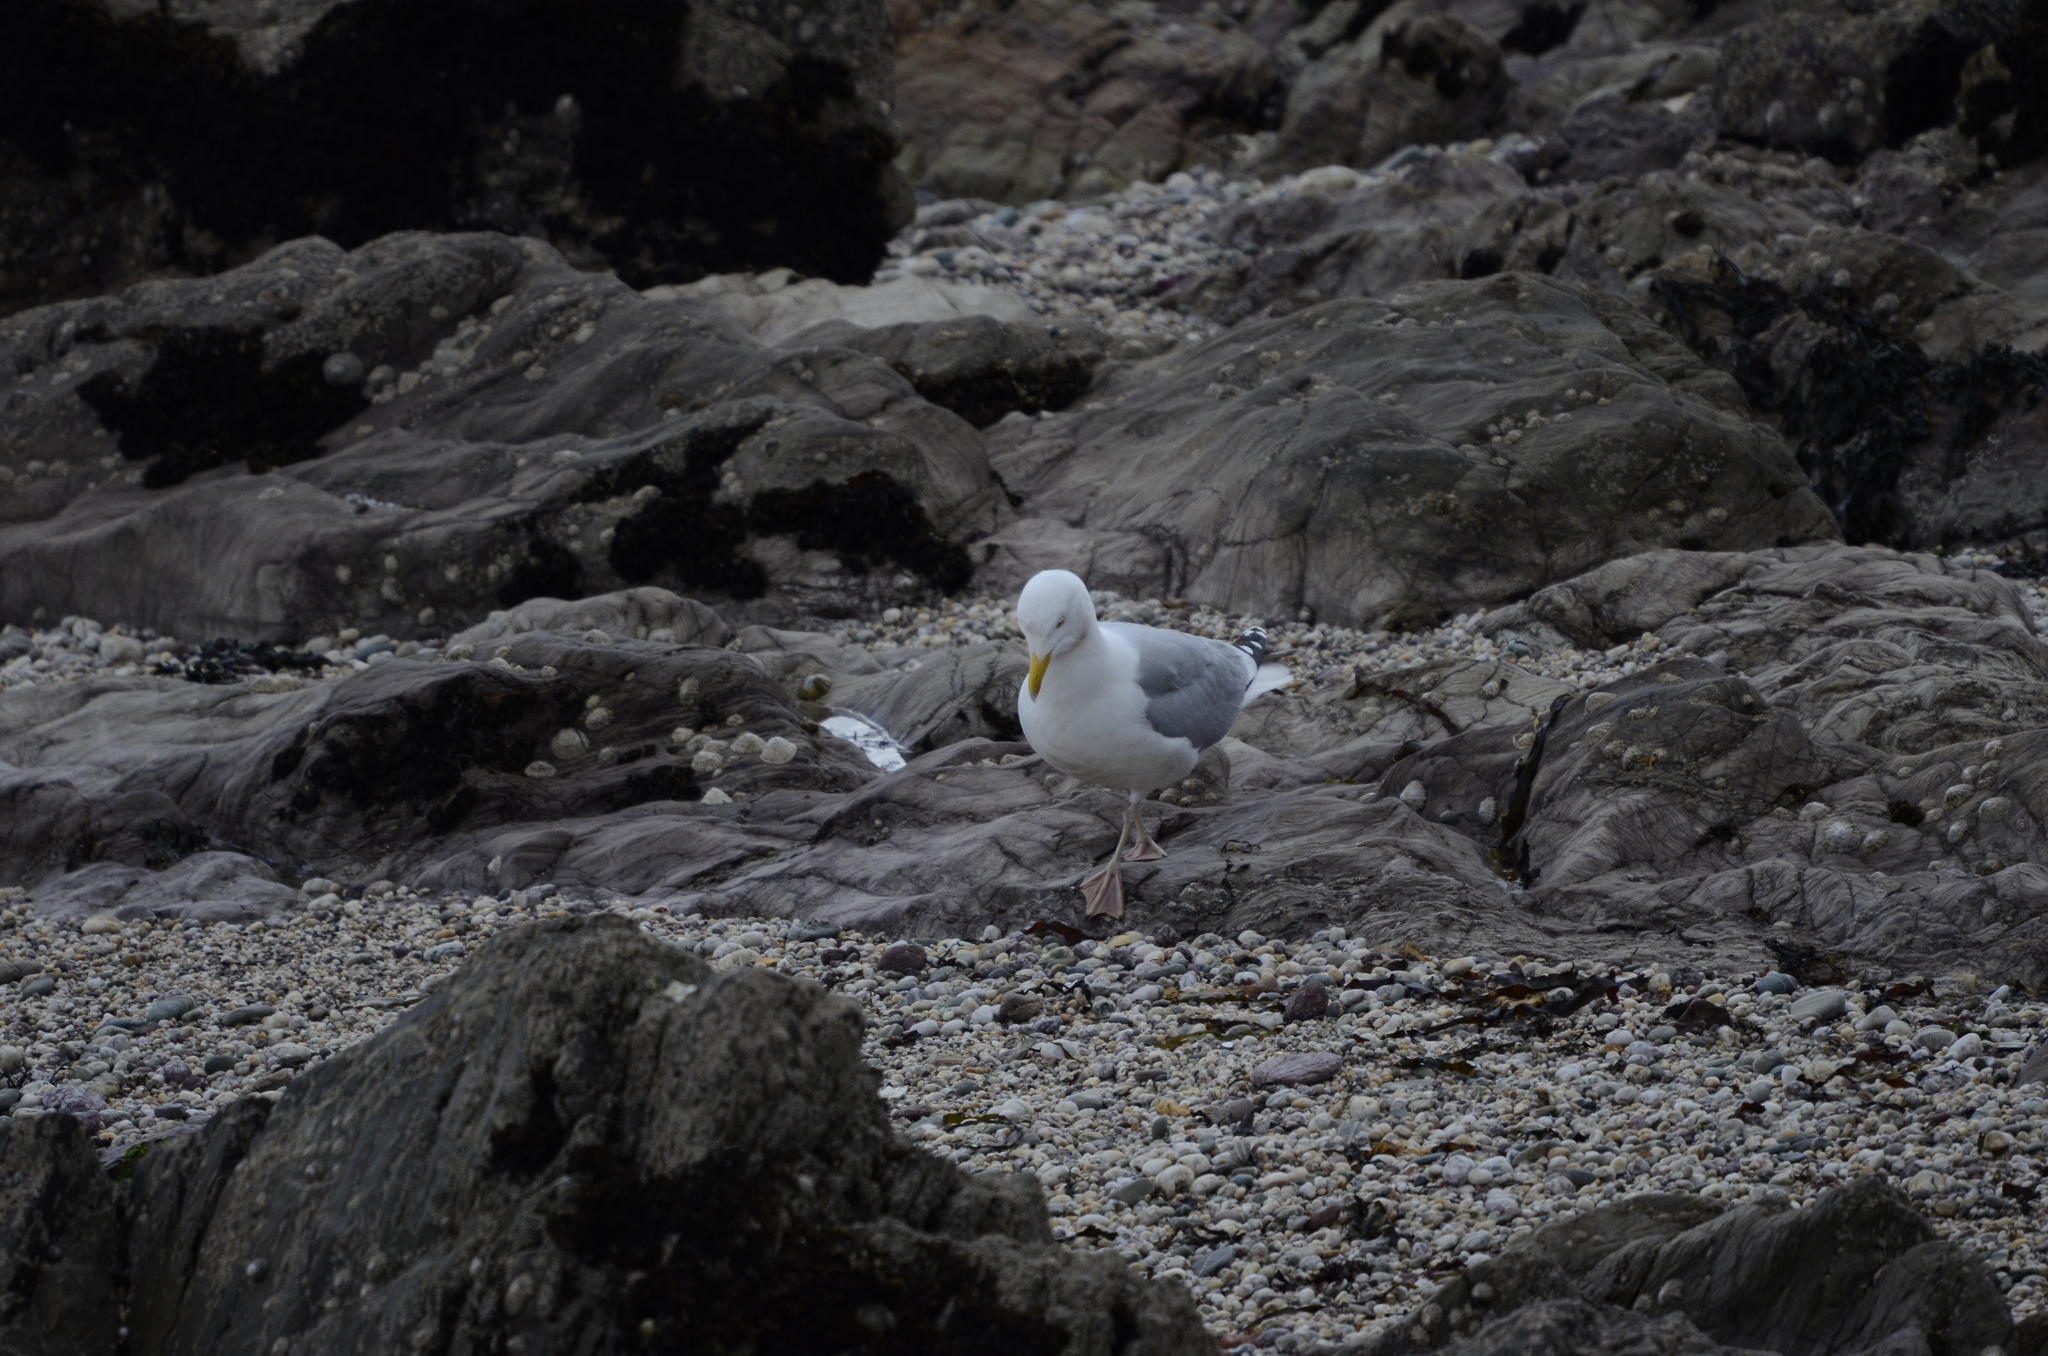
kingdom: Animalia
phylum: Chordata
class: Aves
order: Charadriiformes
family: Laridae
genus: Larus
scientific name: Larus argentatus
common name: Herring gull
